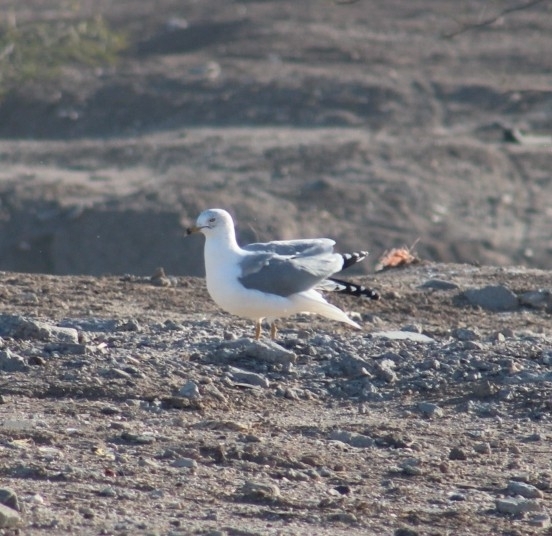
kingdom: Animalia
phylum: Chordata
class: Aves
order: Charadriiformes
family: Laridae
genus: Larus
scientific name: Larus delawarensis
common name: Ring-billed gull
